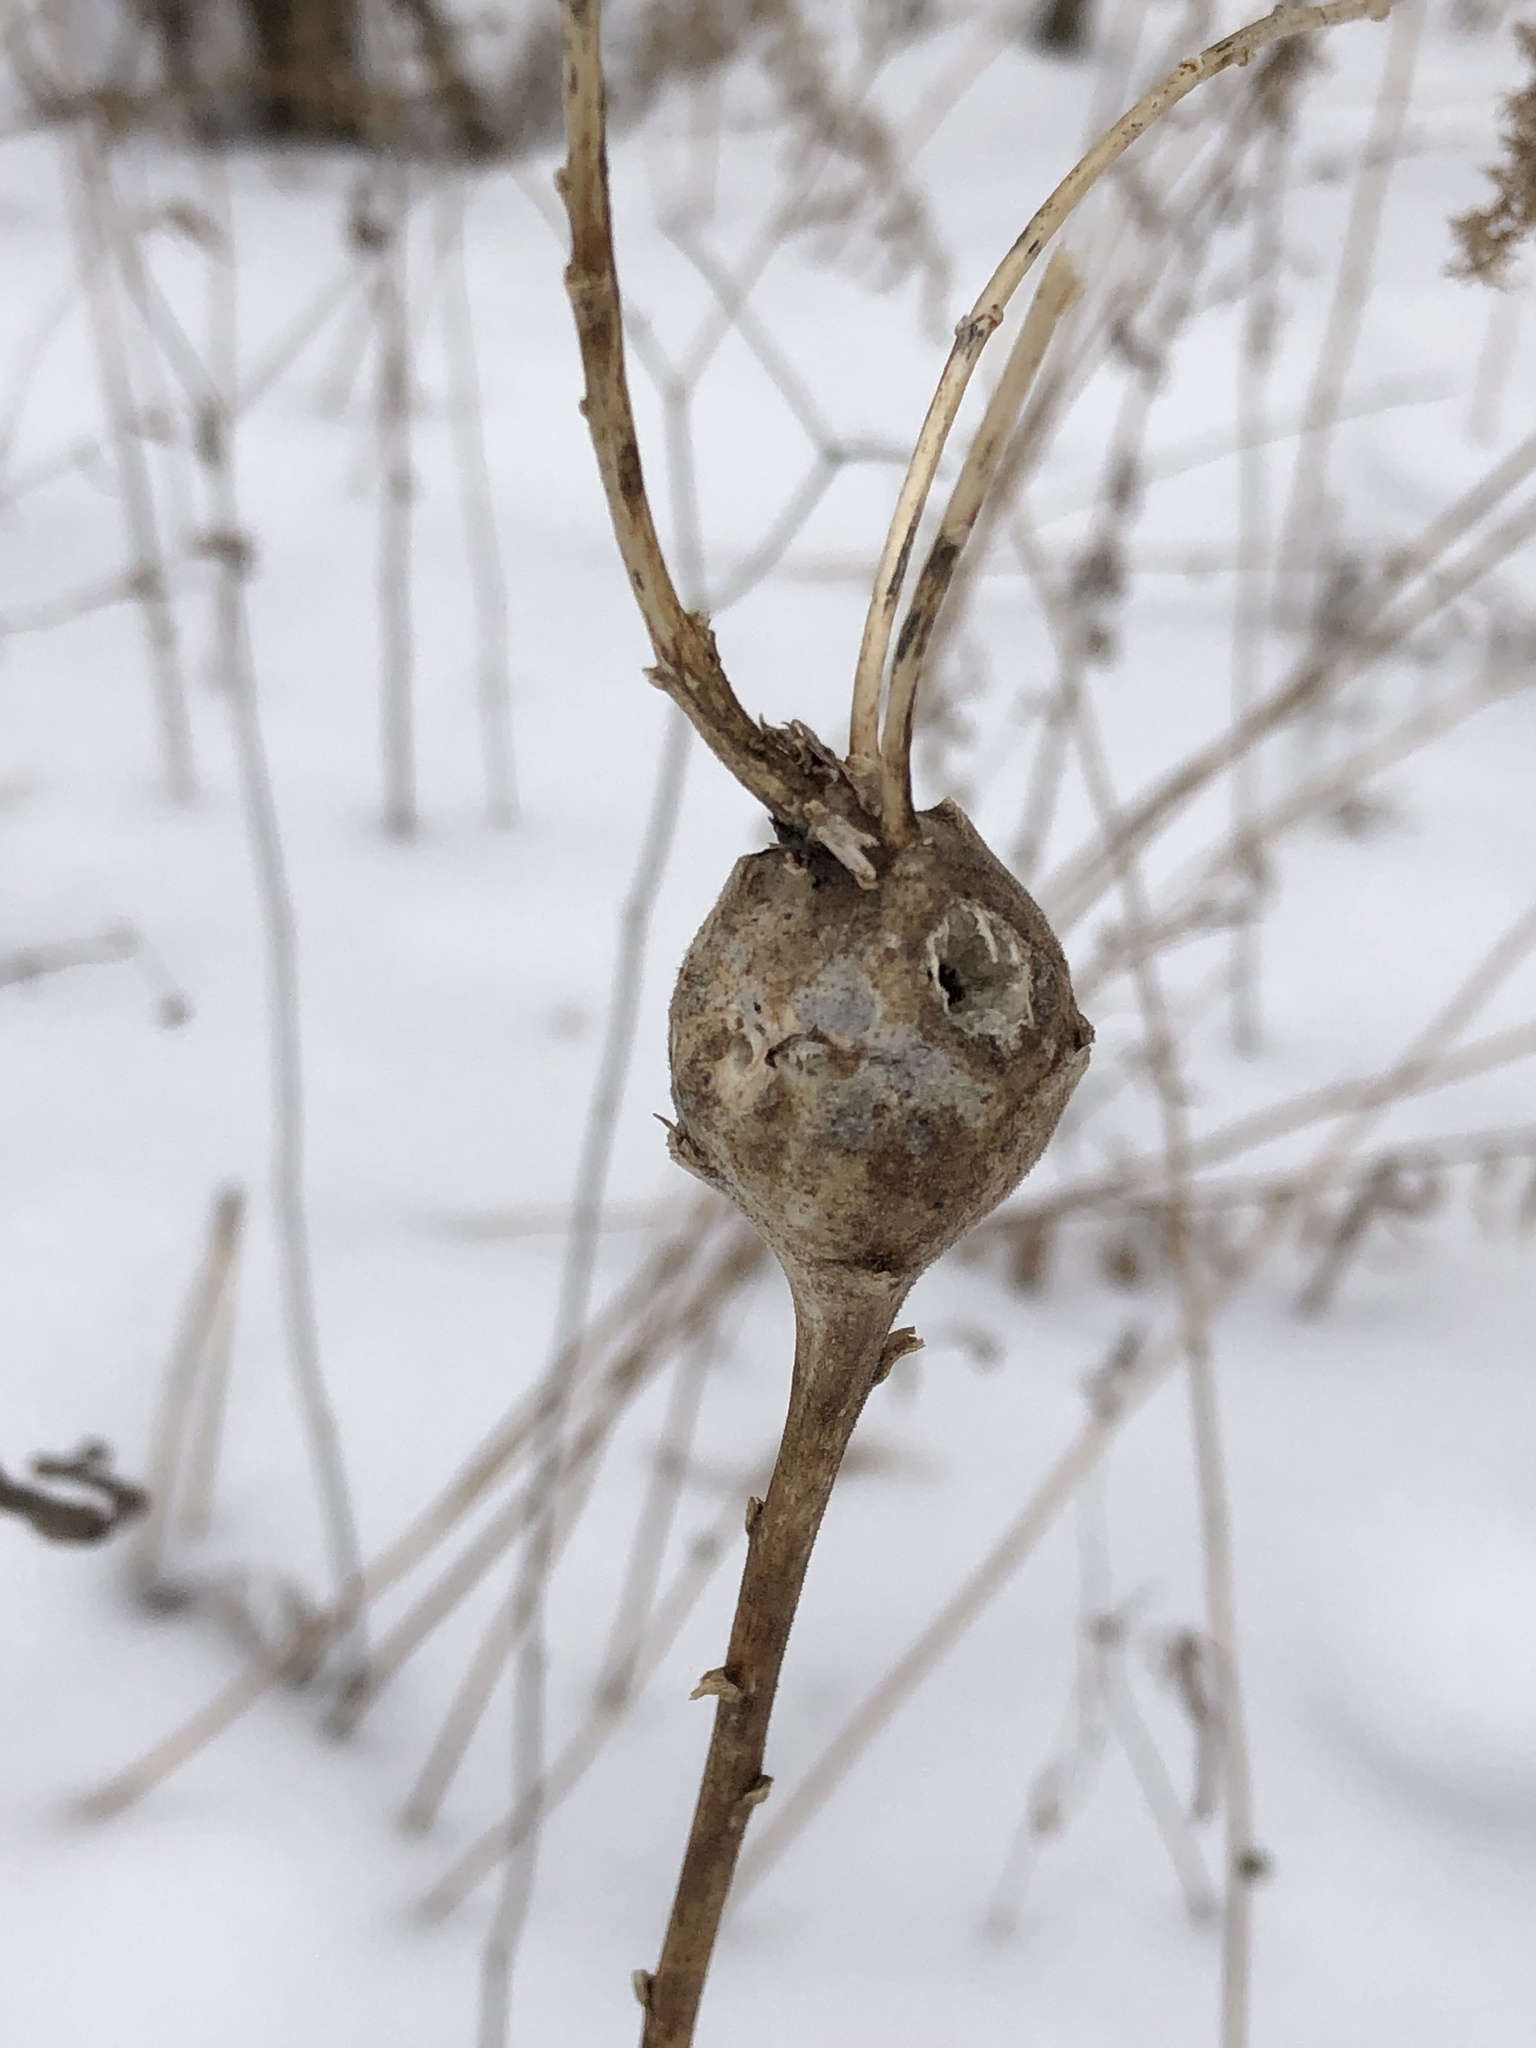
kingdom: Animalia
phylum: Arthropoda
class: Insecta
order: Diptera
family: Tephritidae
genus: Eurosta
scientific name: Eurosta solidaginis
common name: Goldenrod gall fly
